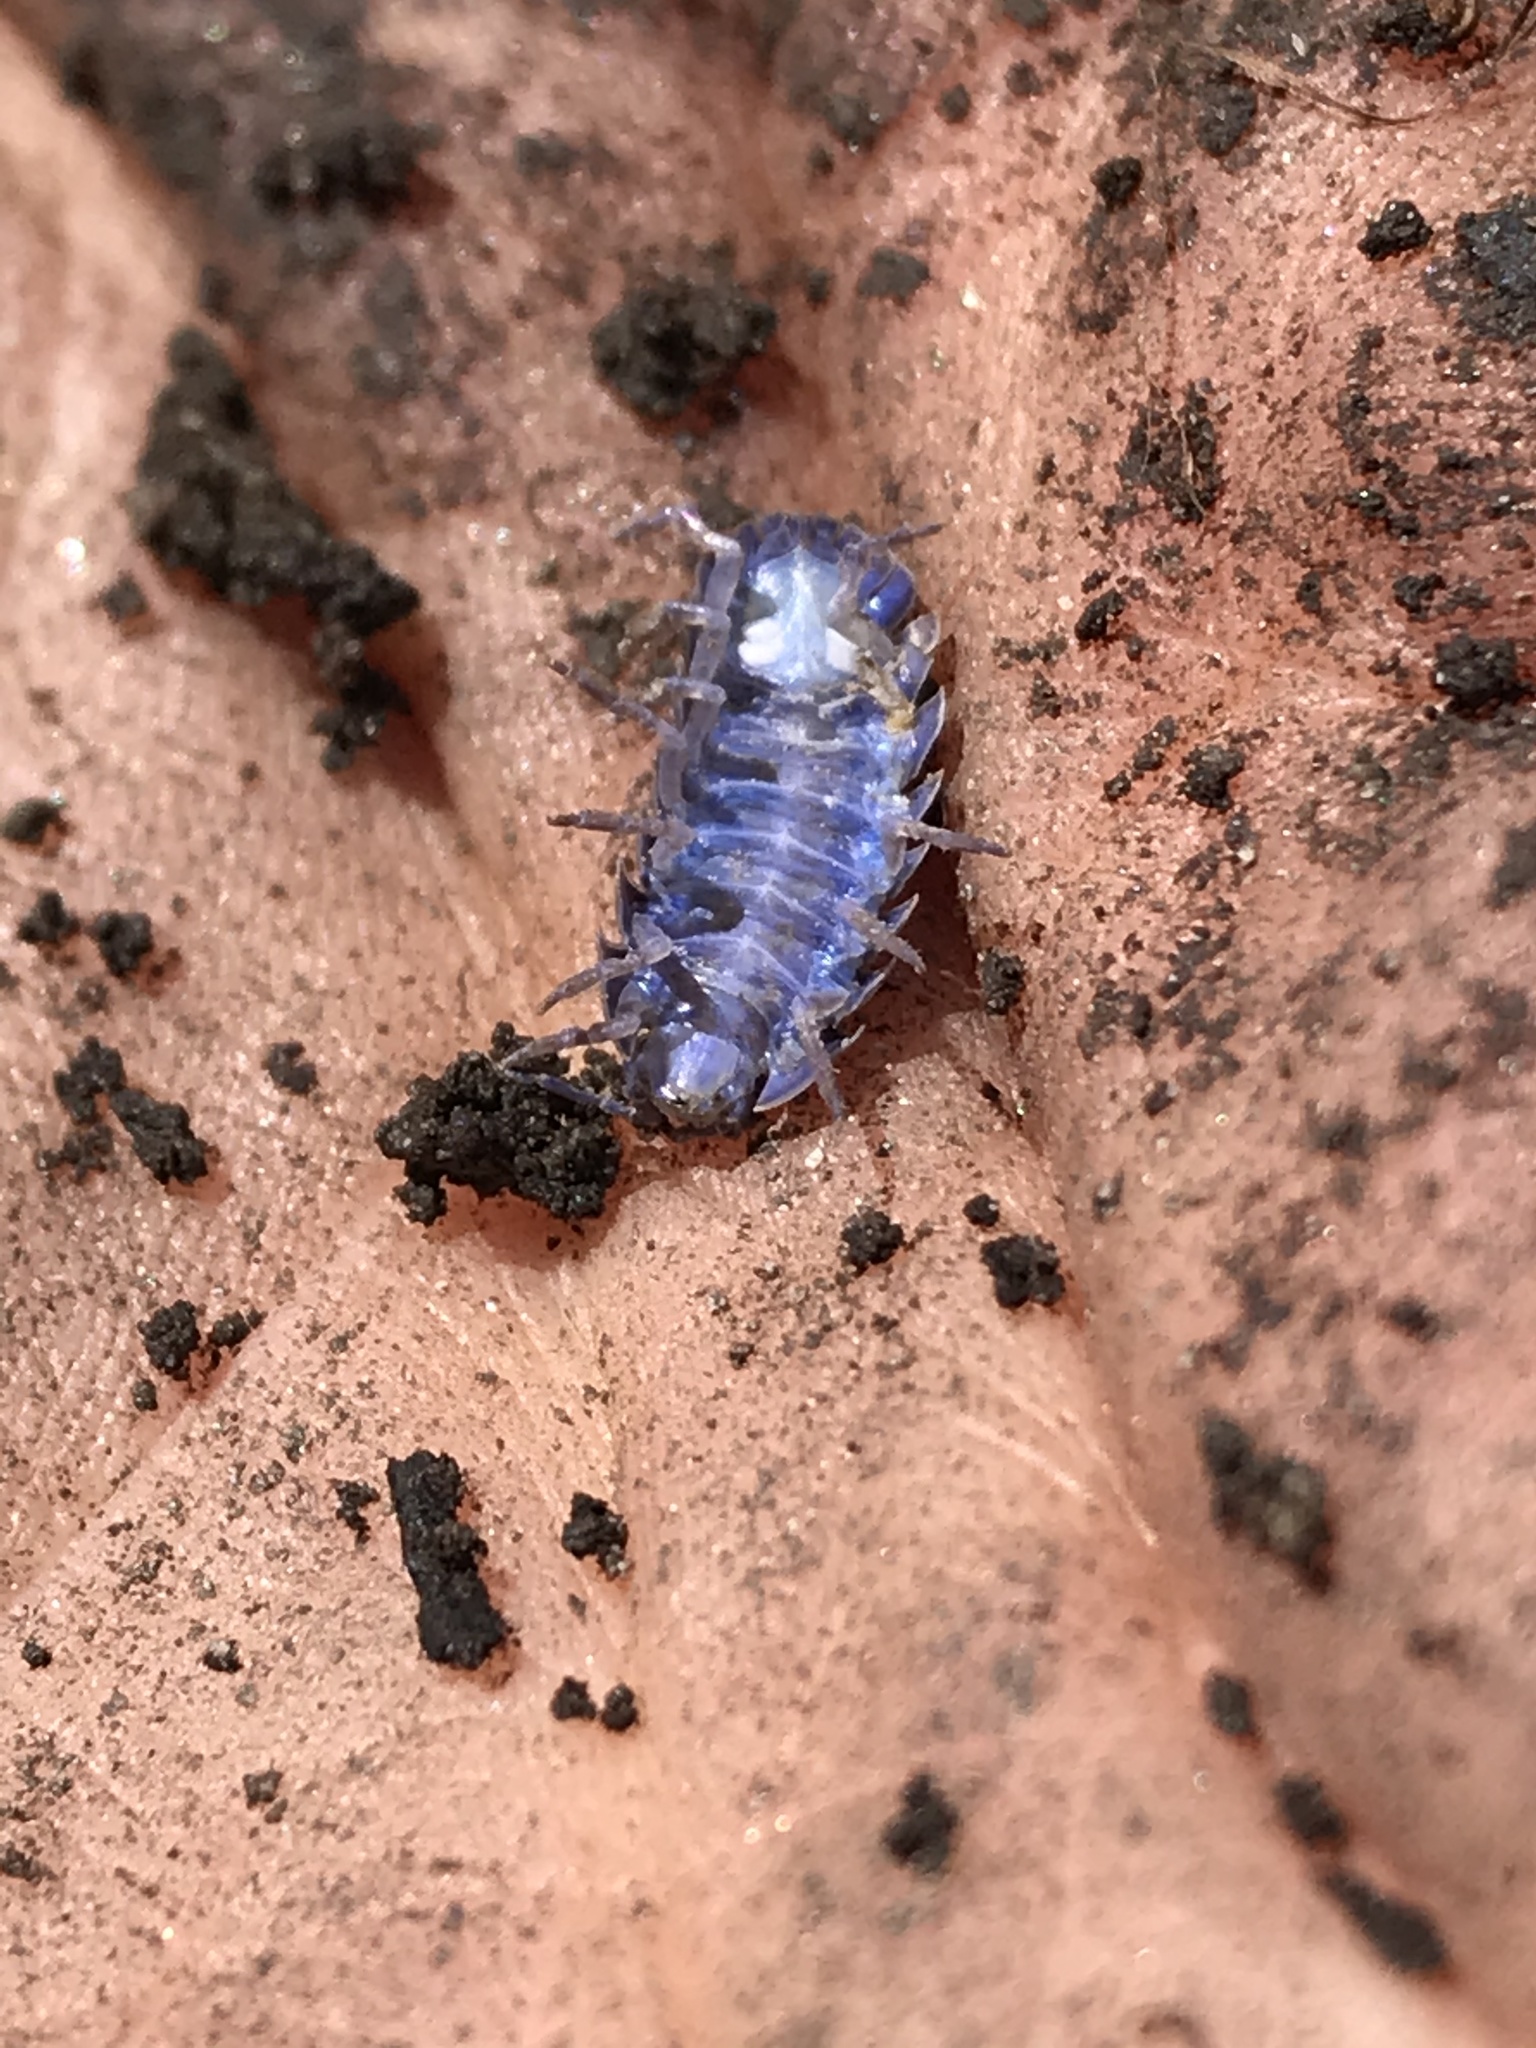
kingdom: Animalia
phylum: Arthropoda
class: Malacostraca
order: Isopoda
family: Armadillidiidae
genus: Armadillidium
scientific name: Armadillidium vulgare
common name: Common pill woodlouse
